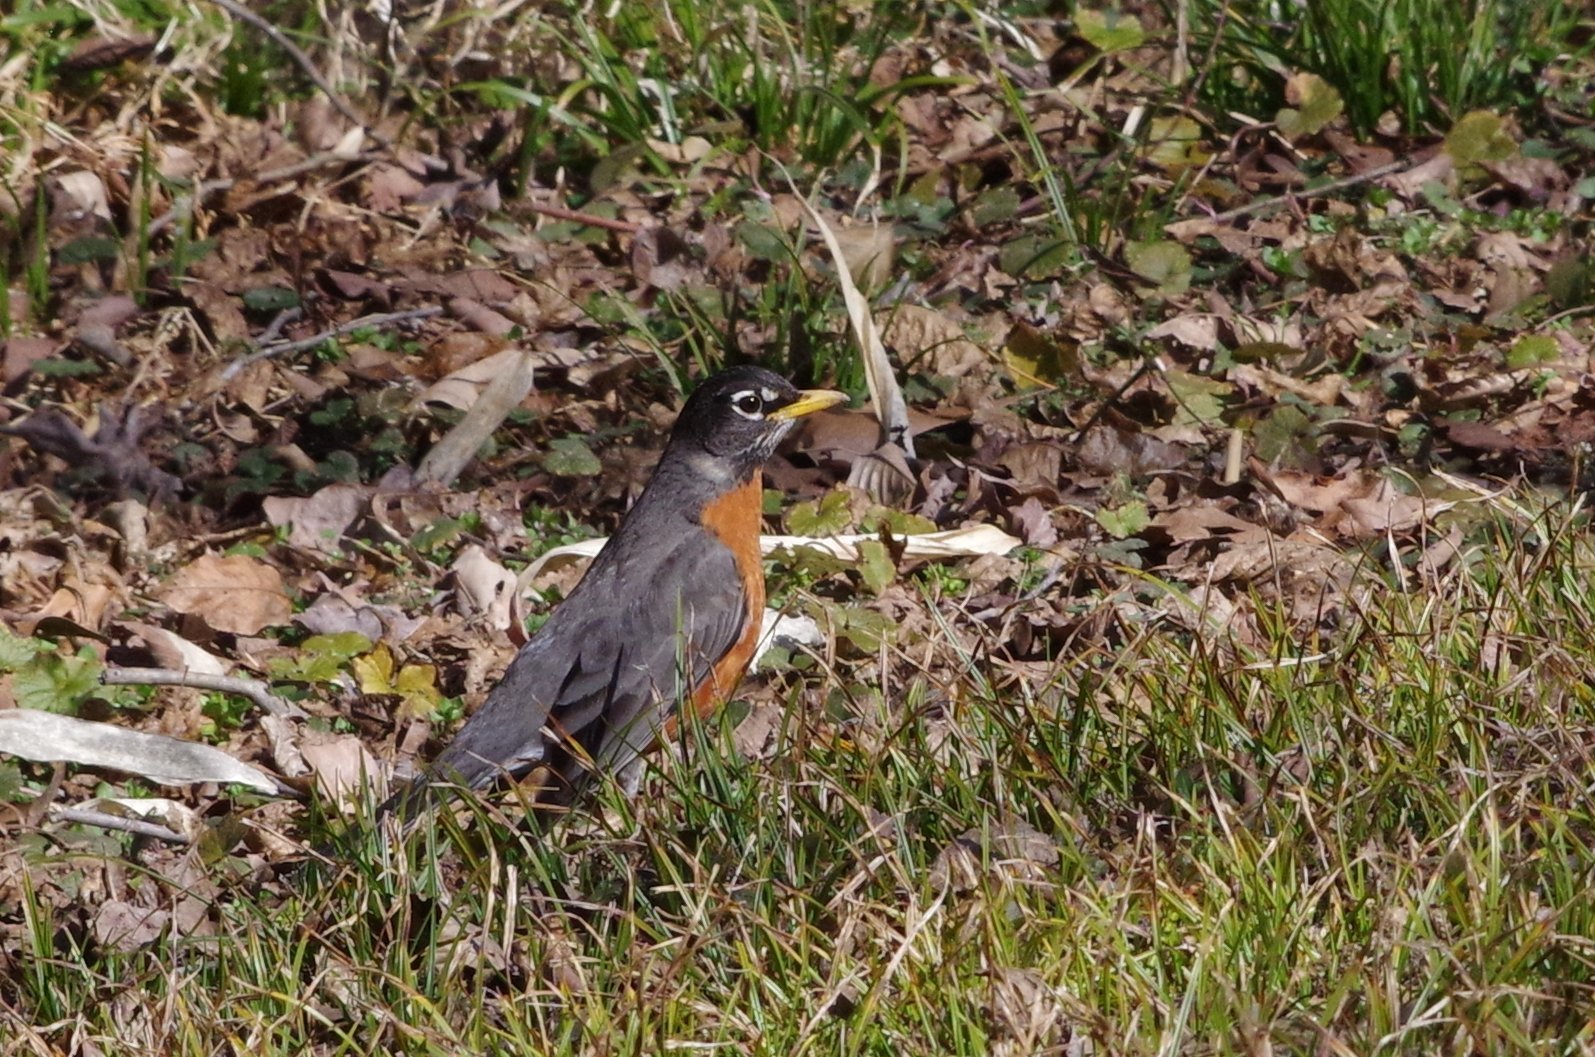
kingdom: Animalia
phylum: Chordata
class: Aves
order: Passeriformes
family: Turdidae
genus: Turdus
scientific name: Turdus migratorius
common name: American robin
